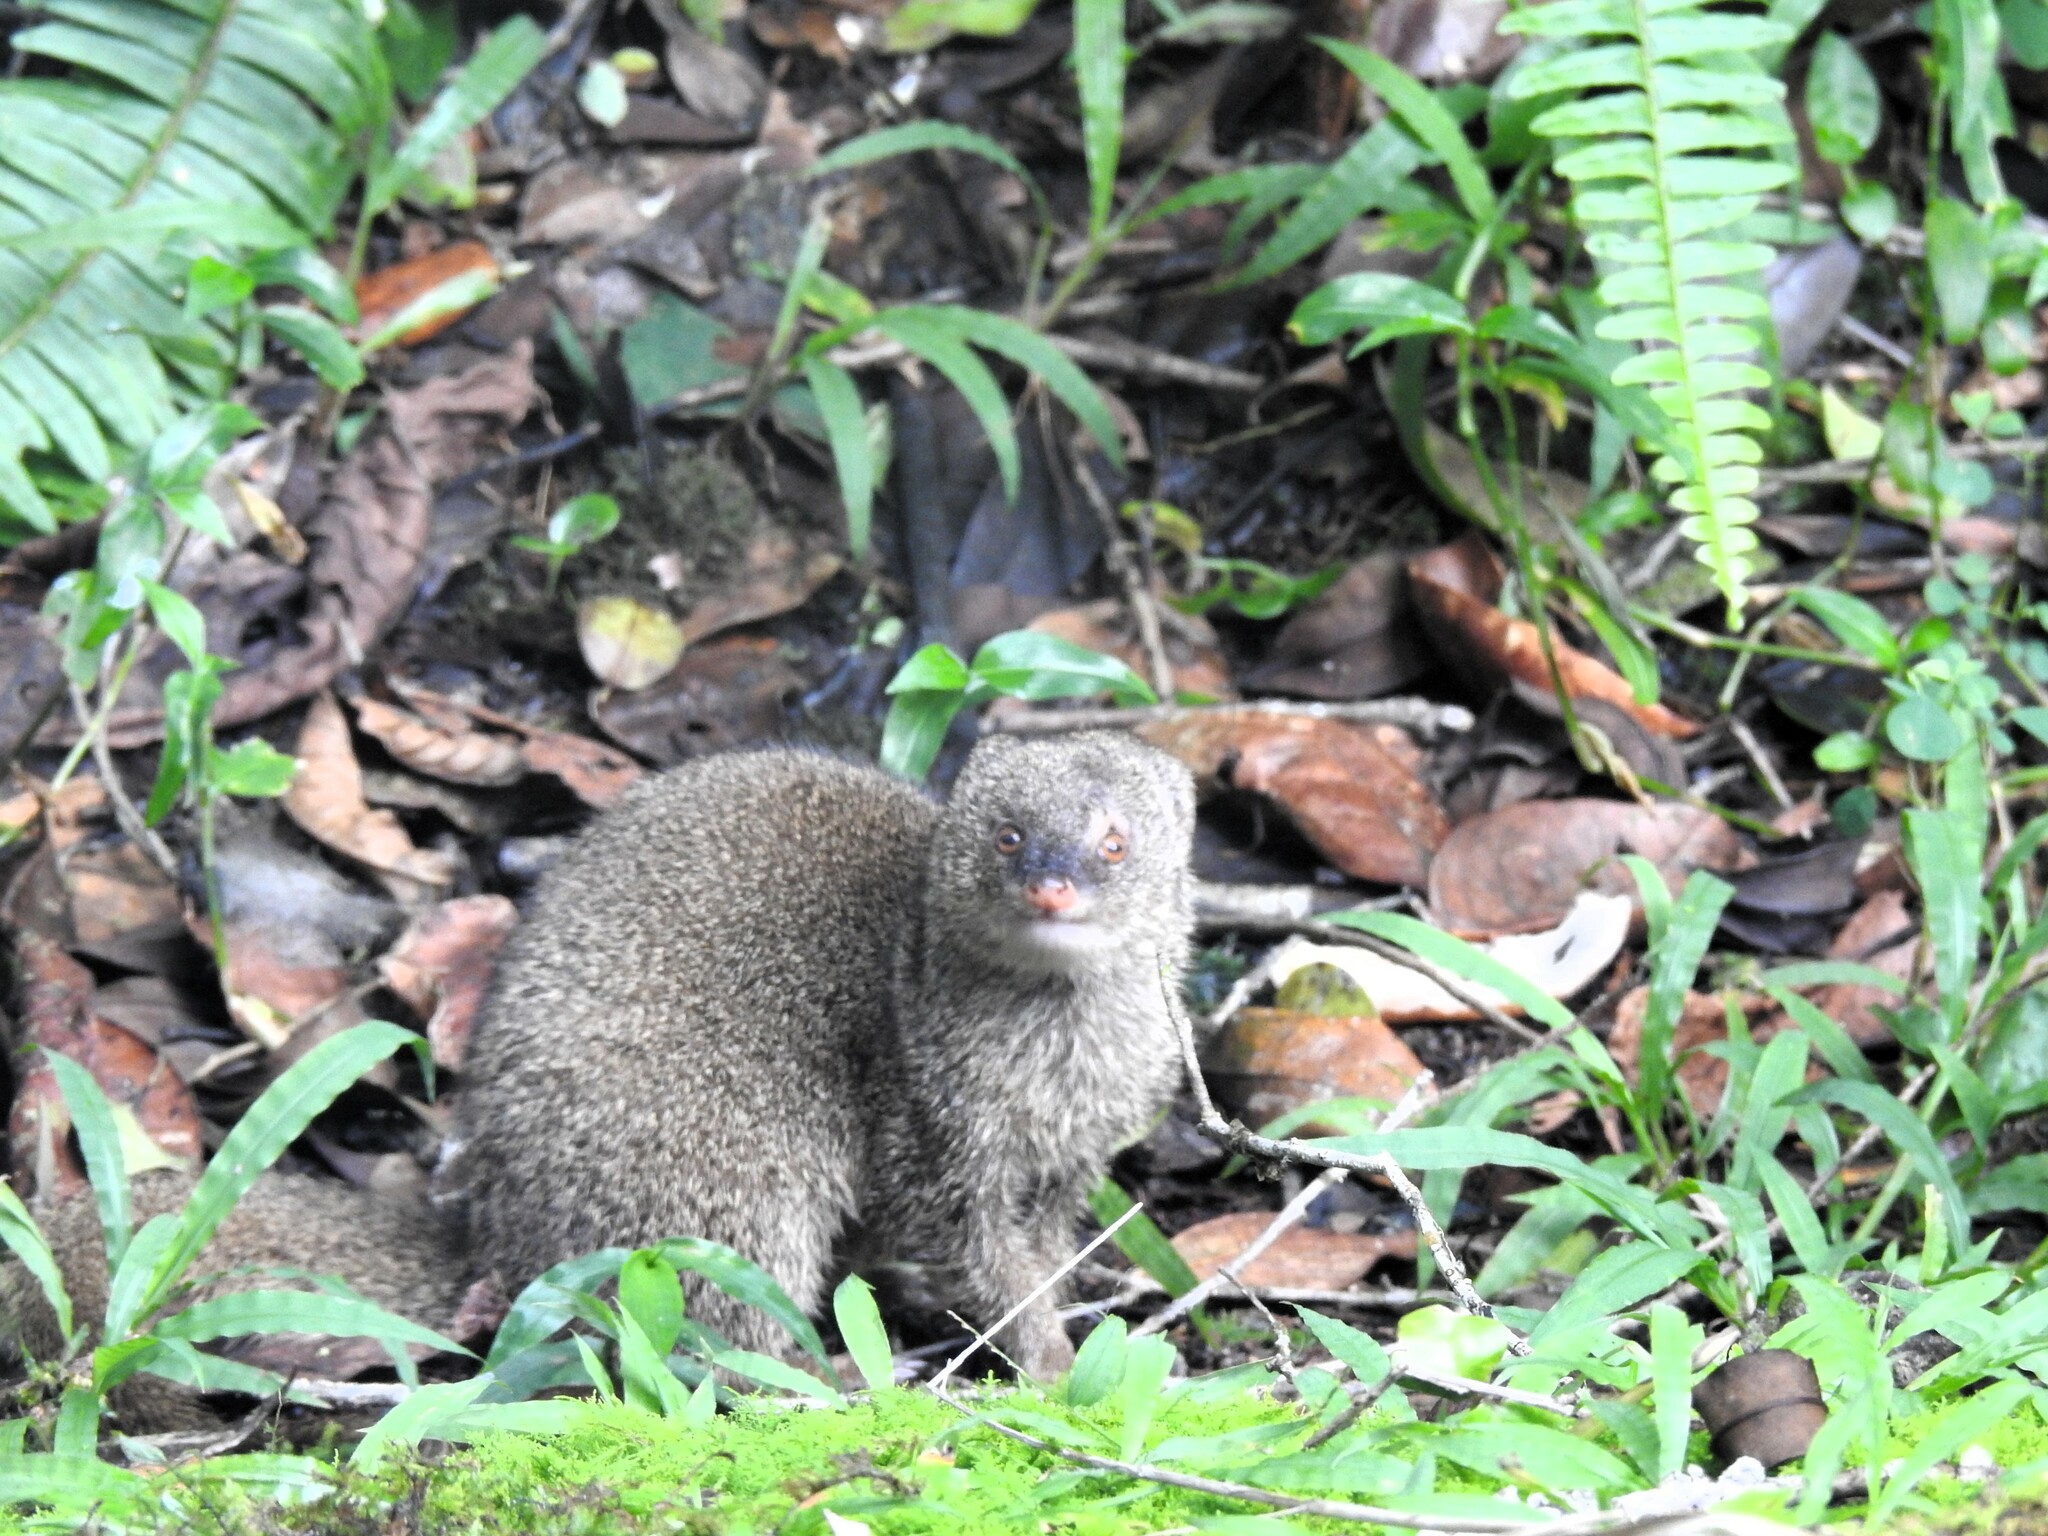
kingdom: Animalia
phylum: Chordata
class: Mammalia
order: Carnivora
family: Herpestidae
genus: Herpestes
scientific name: Herpestes javanicus
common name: Small asian mongoose
